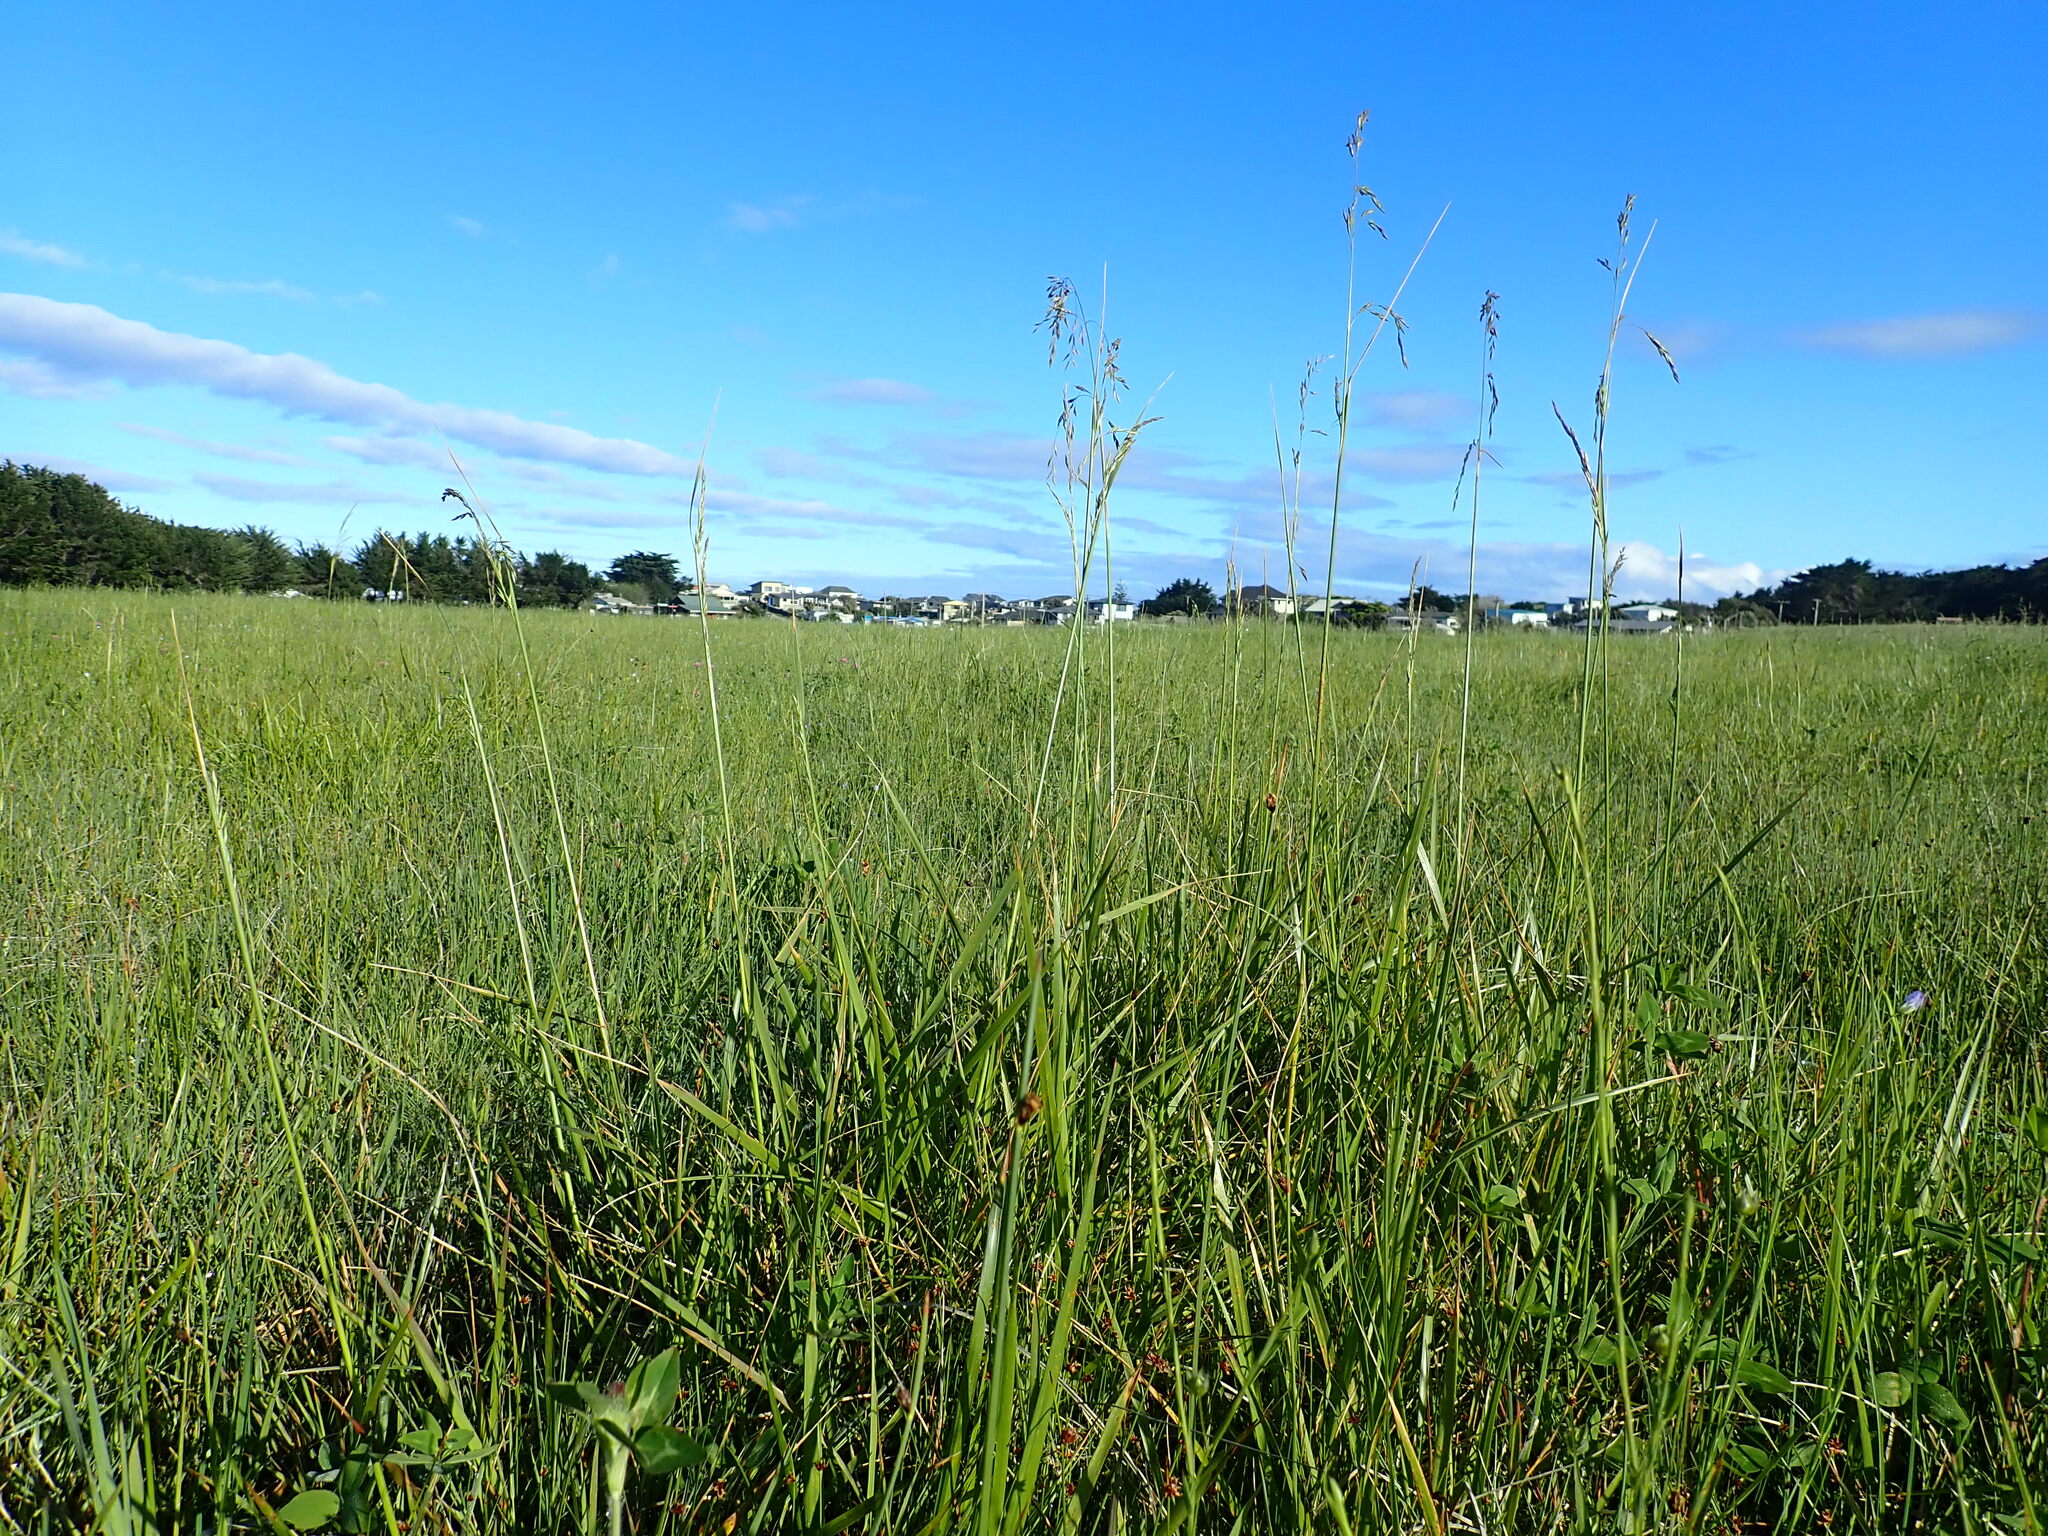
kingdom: Plantae
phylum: Tracheophyta
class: Liliopsida
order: Poales
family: Poaceae
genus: Lolium
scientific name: Lolium arundinaceum
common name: Reed fescue
